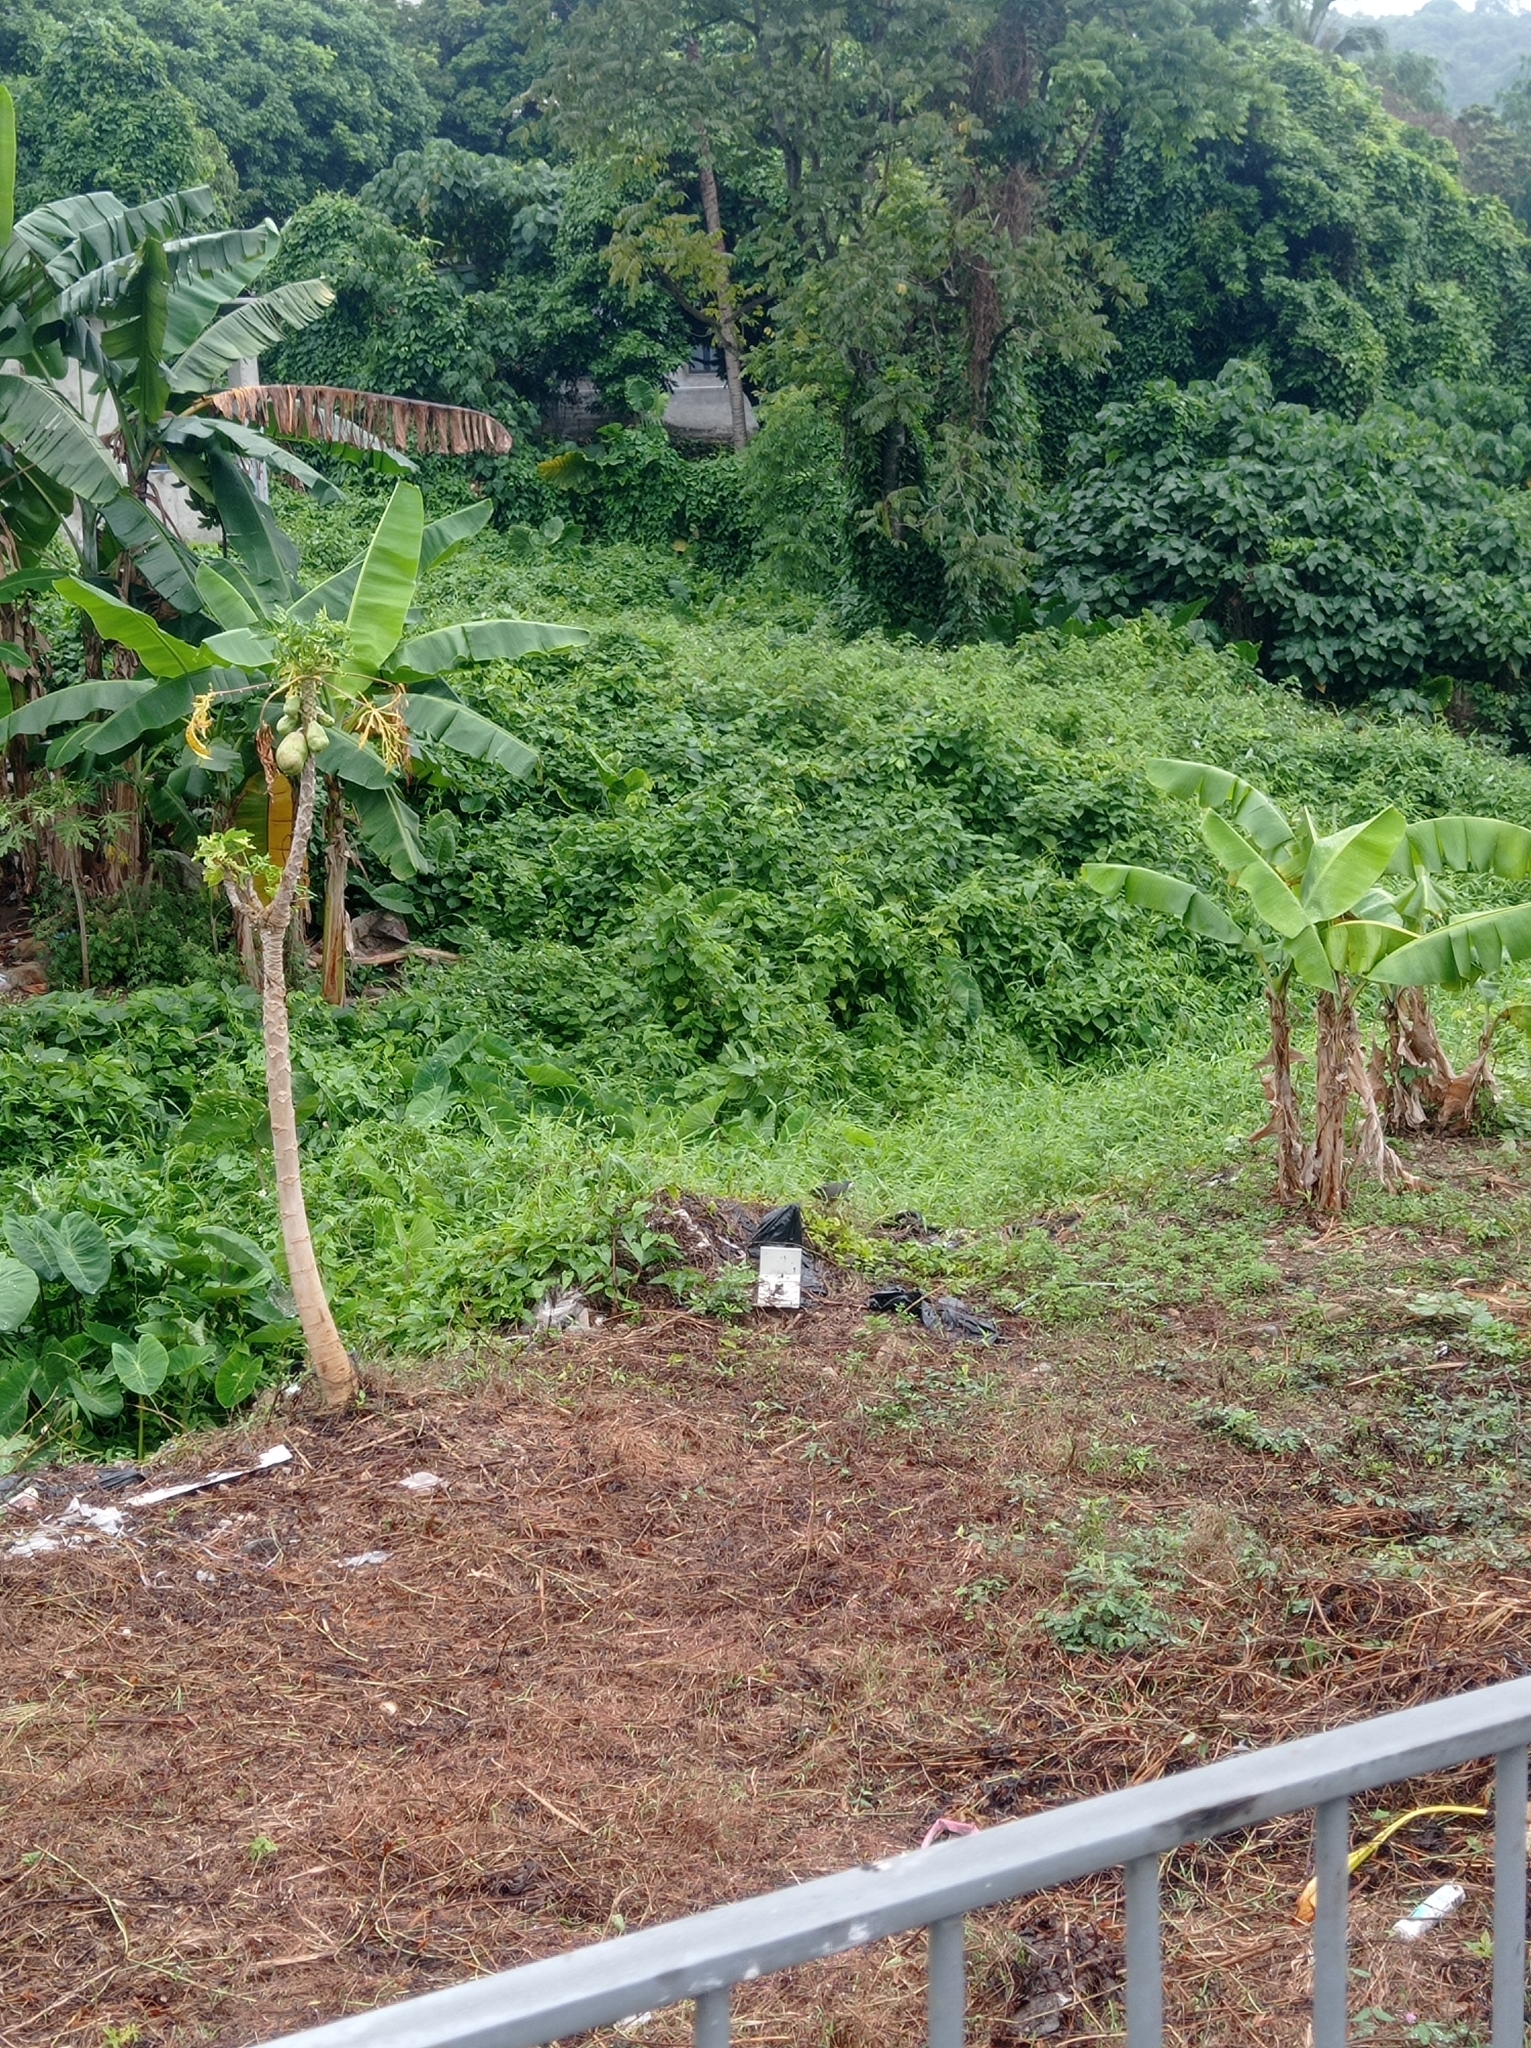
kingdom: Animalia
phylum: Chordata
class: Aves
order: Gruiformes
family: Rallidae
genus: Amaurornis
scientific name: Amaurornis phoenicurus
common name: White-breasted waterhen
